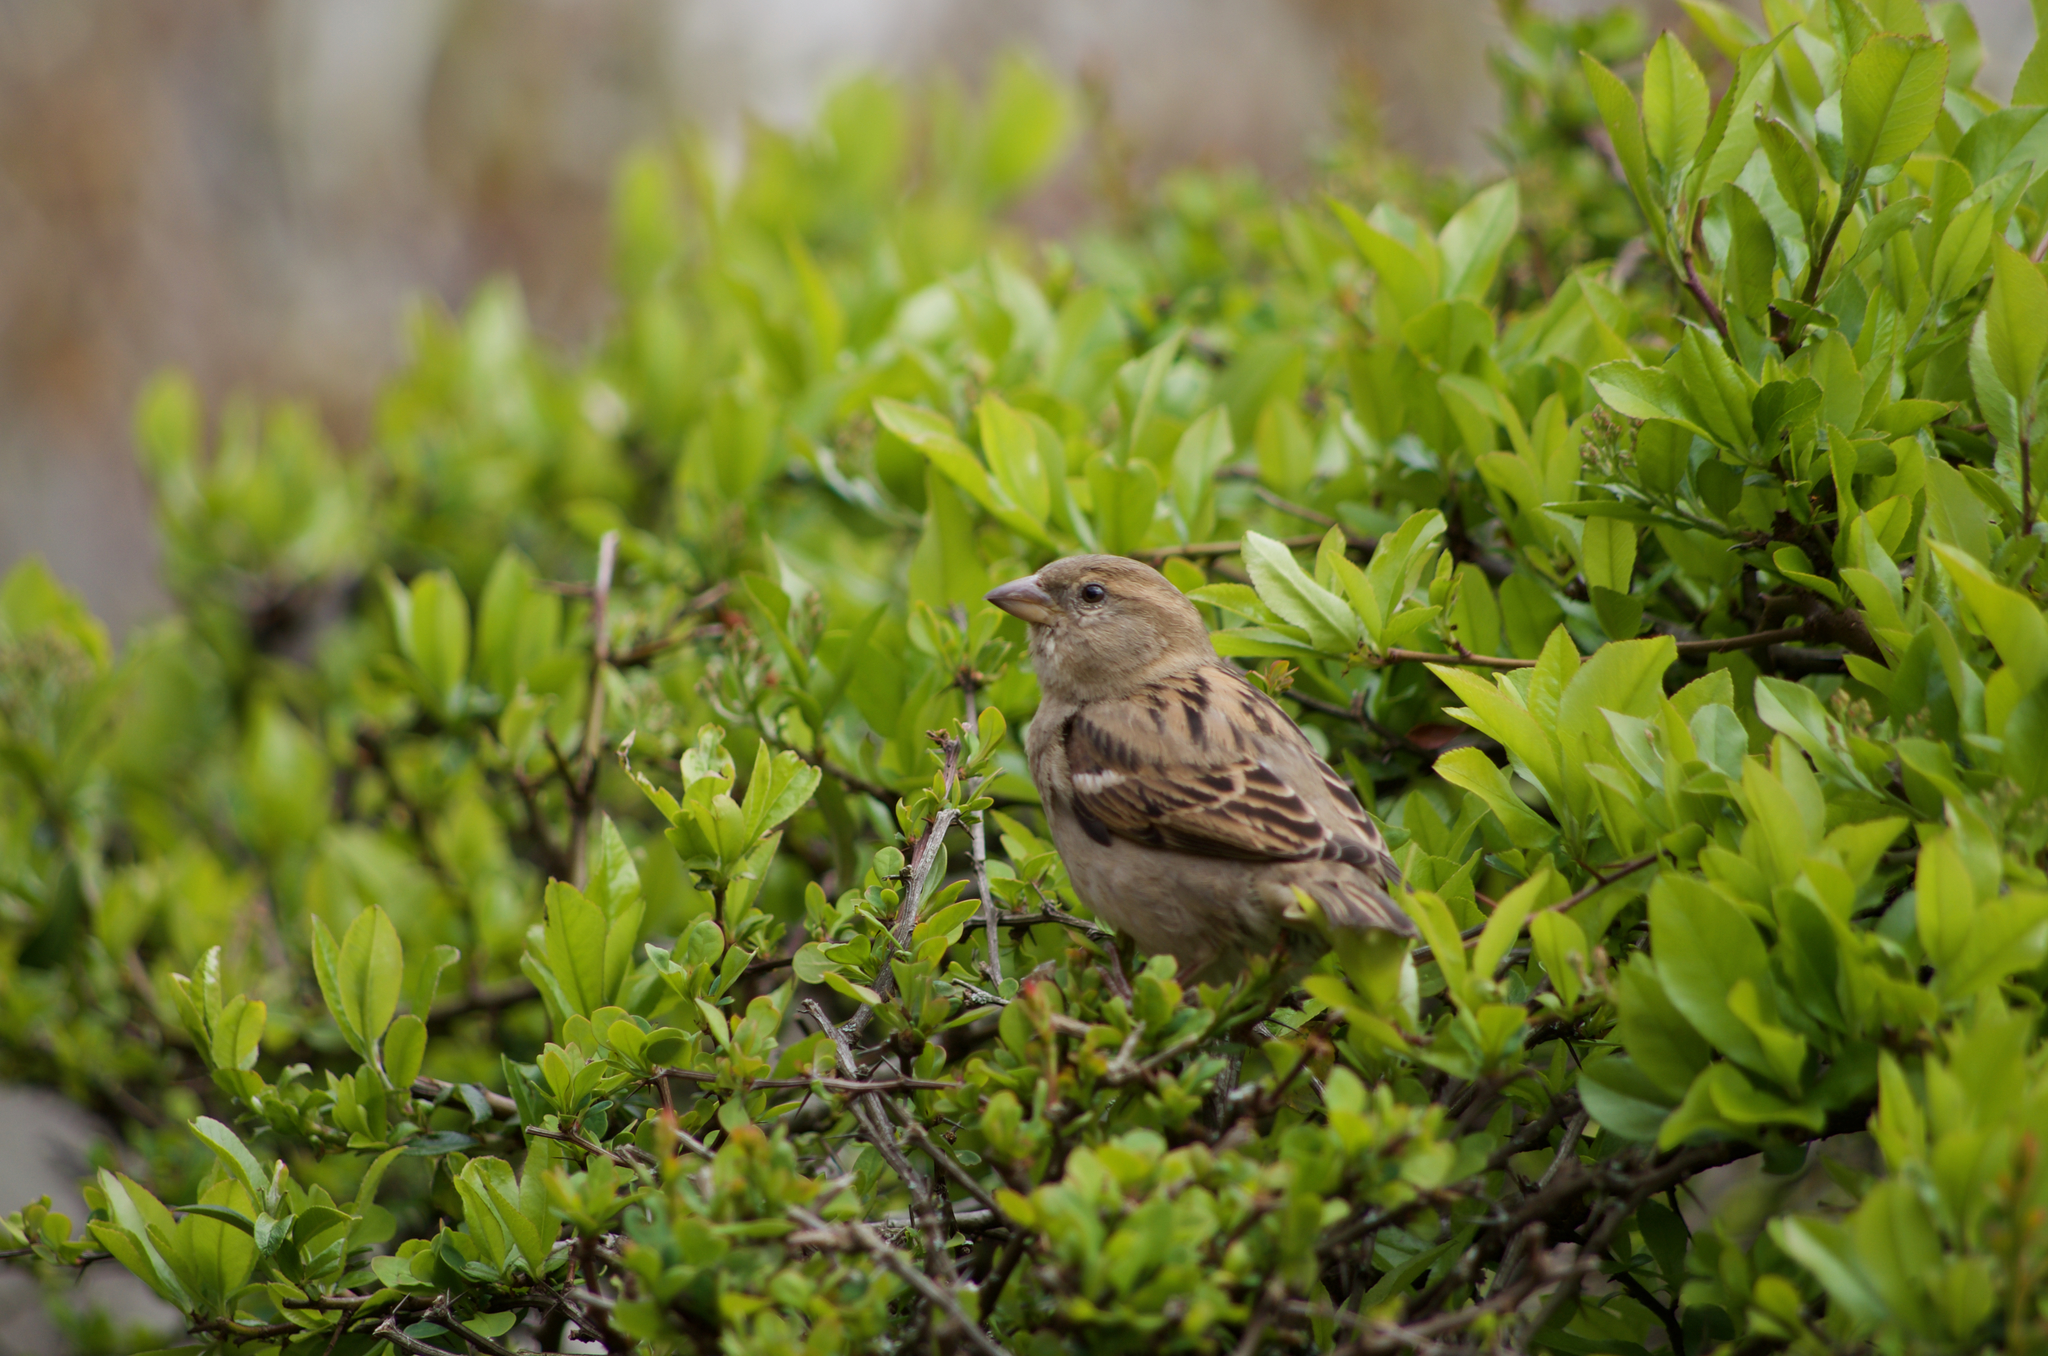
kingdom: Animalia
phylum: Chordata
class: Aves
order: Passeriformes
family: Passeridae
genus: Passer
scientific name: Passer domesticus
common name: House sparrow
